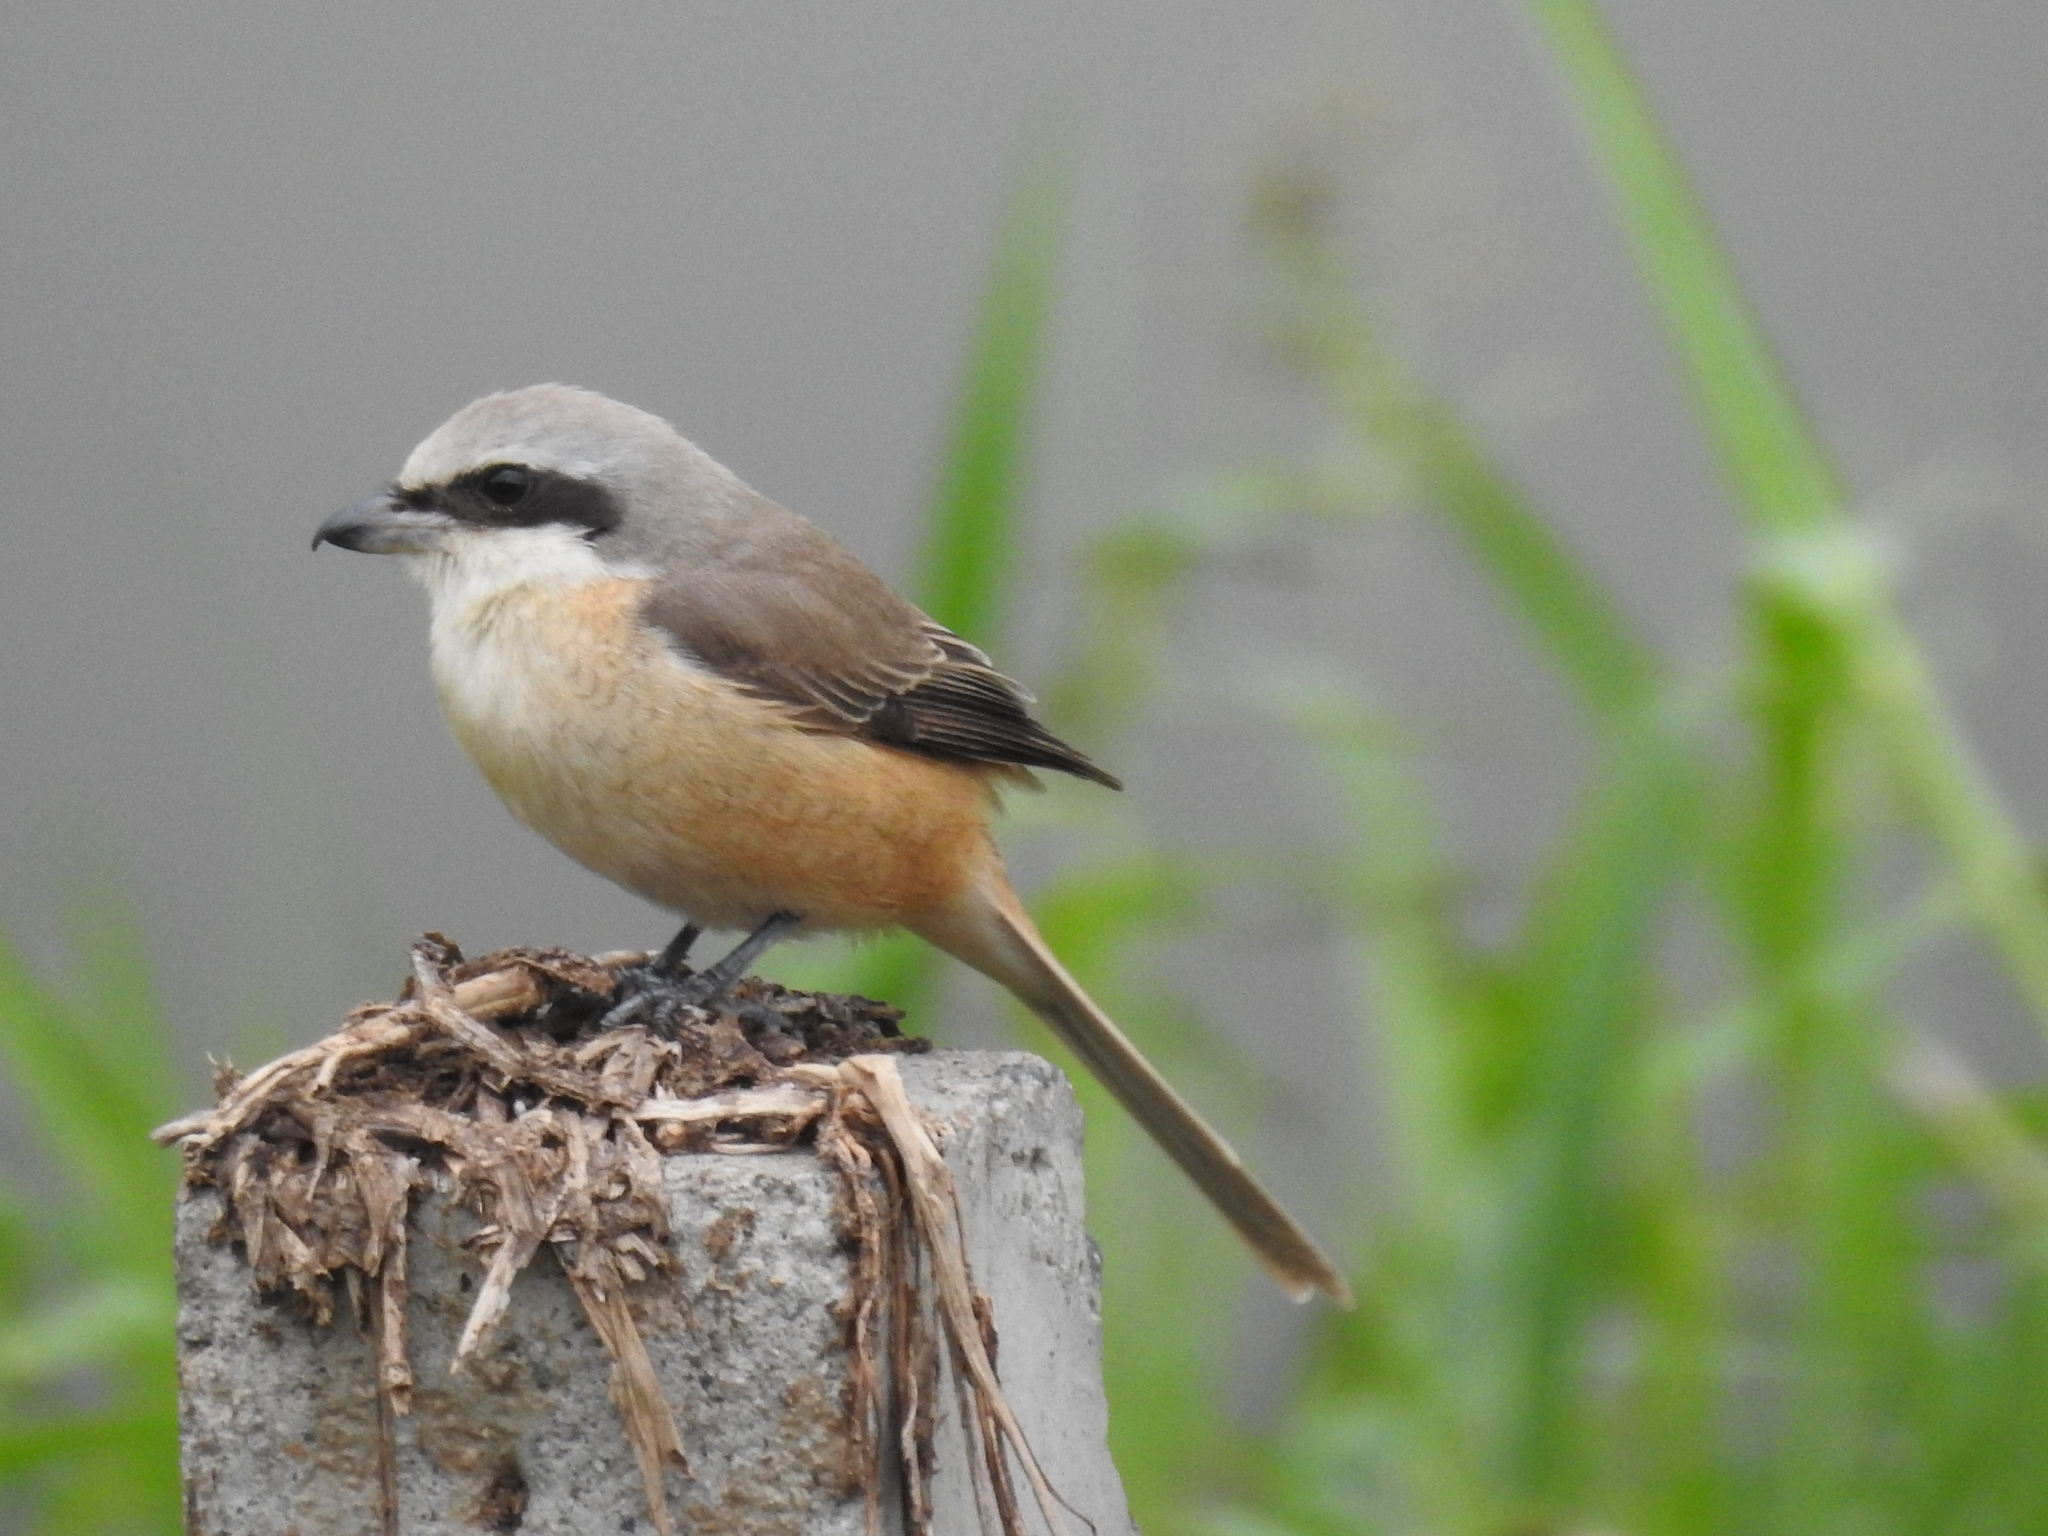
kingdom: Animalia
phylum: Chordata
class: Aves
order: Passeriformes
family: Laniidae
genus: Lanius
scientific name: Lanius cristatus
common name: Brown shrike
